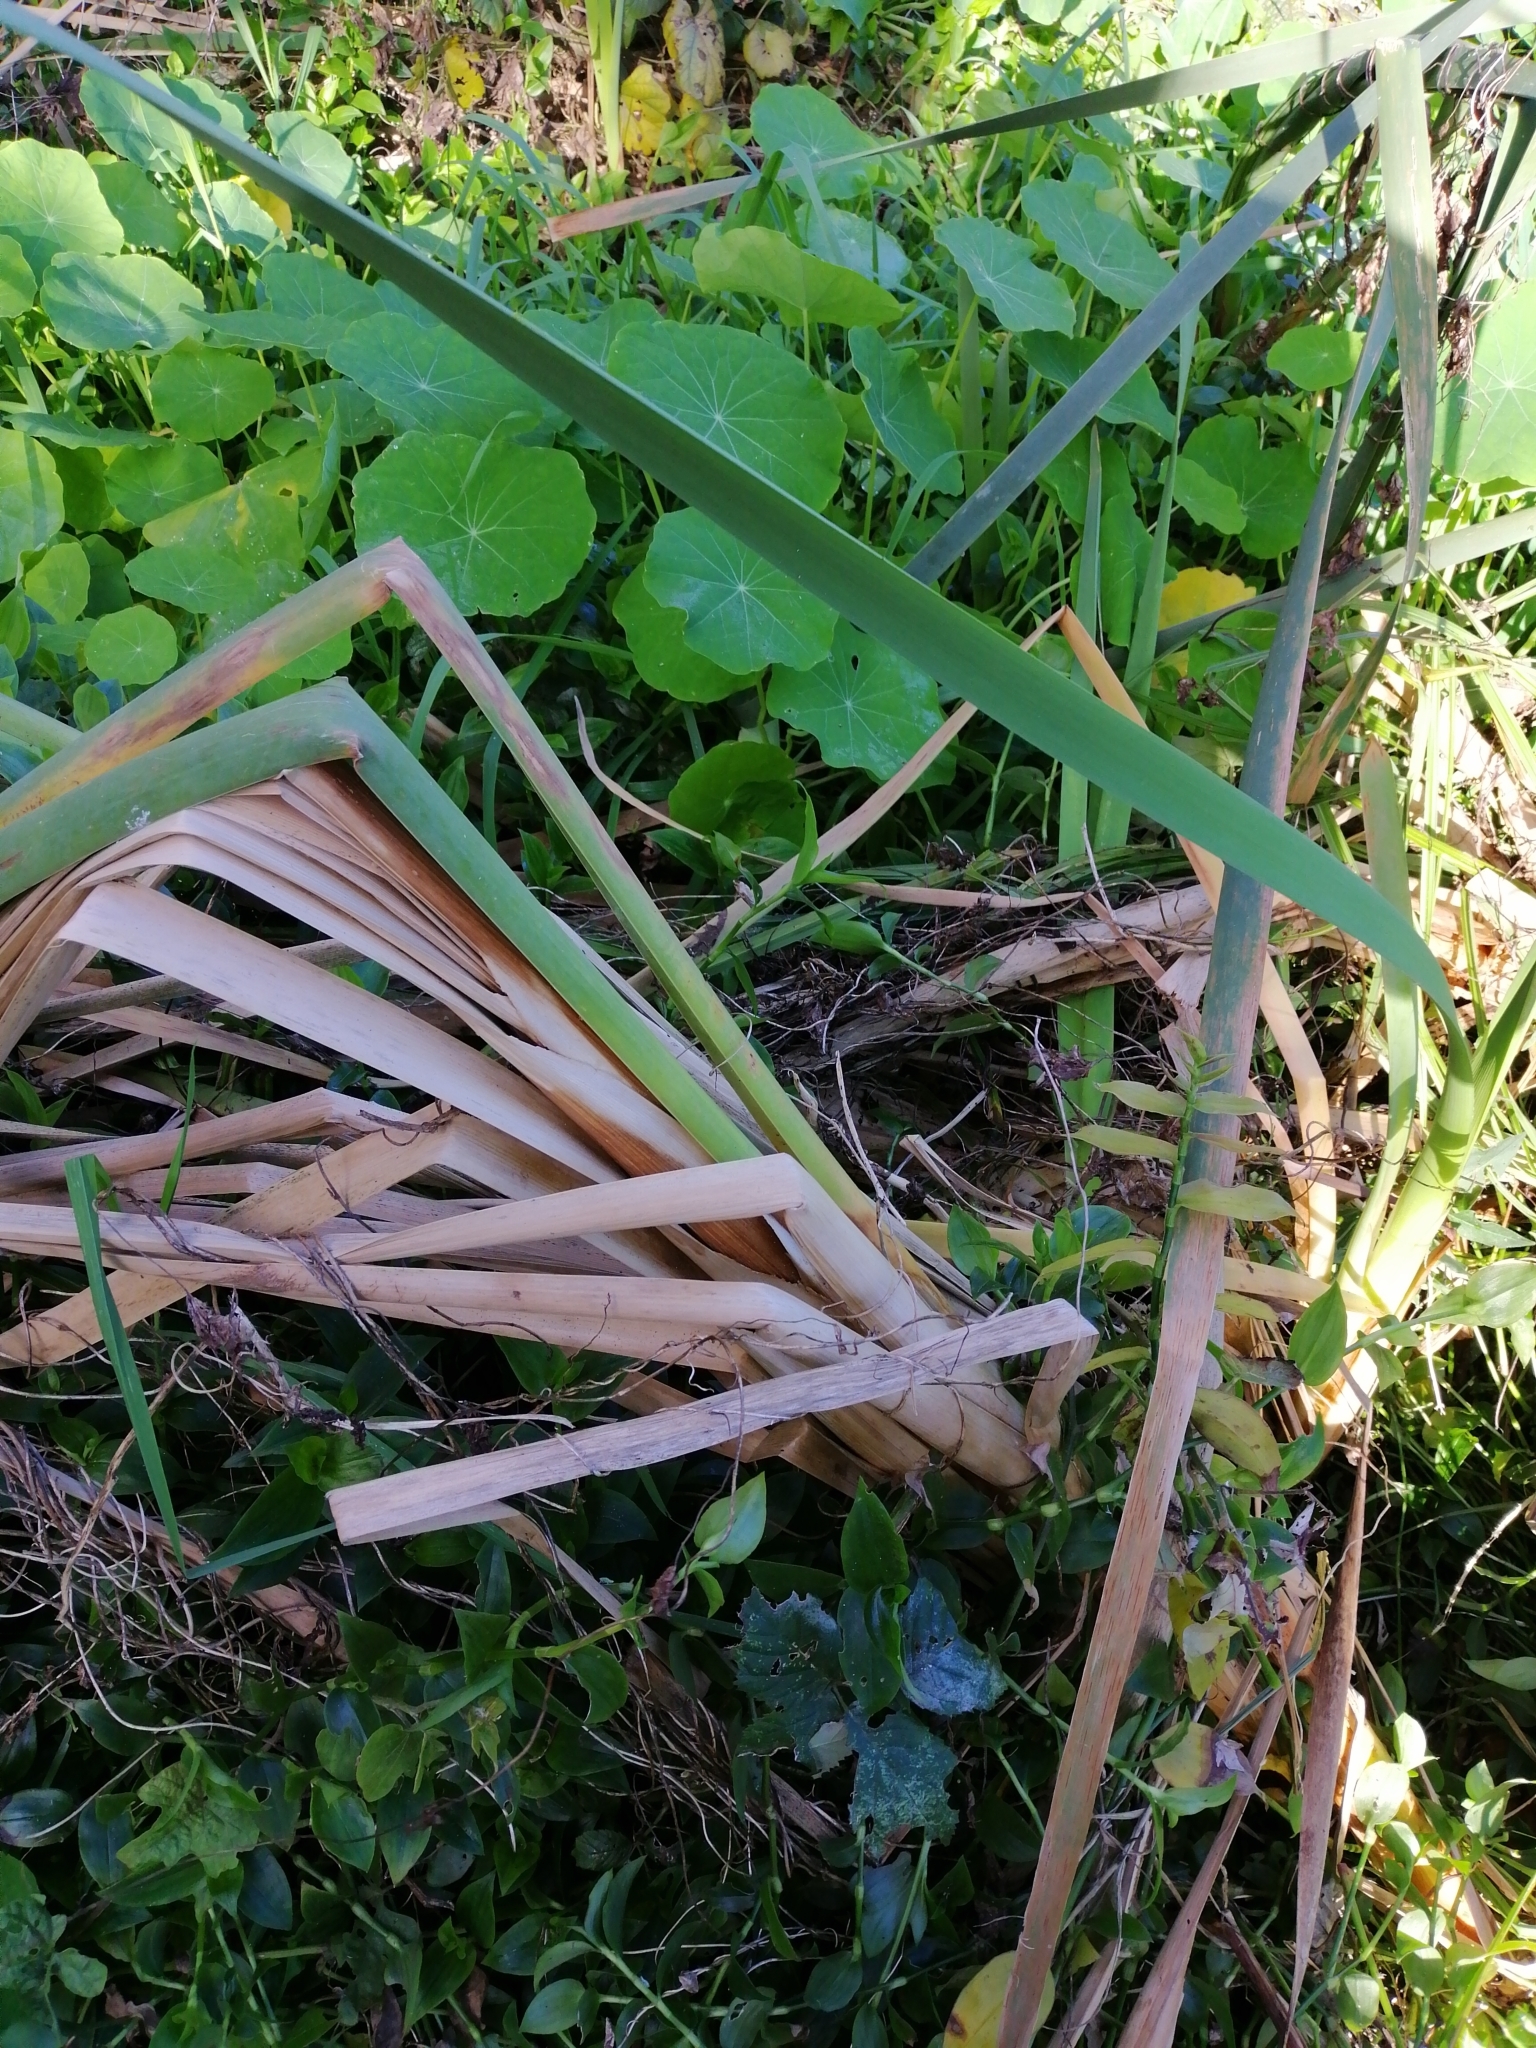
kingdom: Plantae
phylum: Tracheophyta
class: Liliopsida
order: Poales
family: Typhaceae
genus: Typha
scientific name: Typha orientalis
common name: Bullrush
